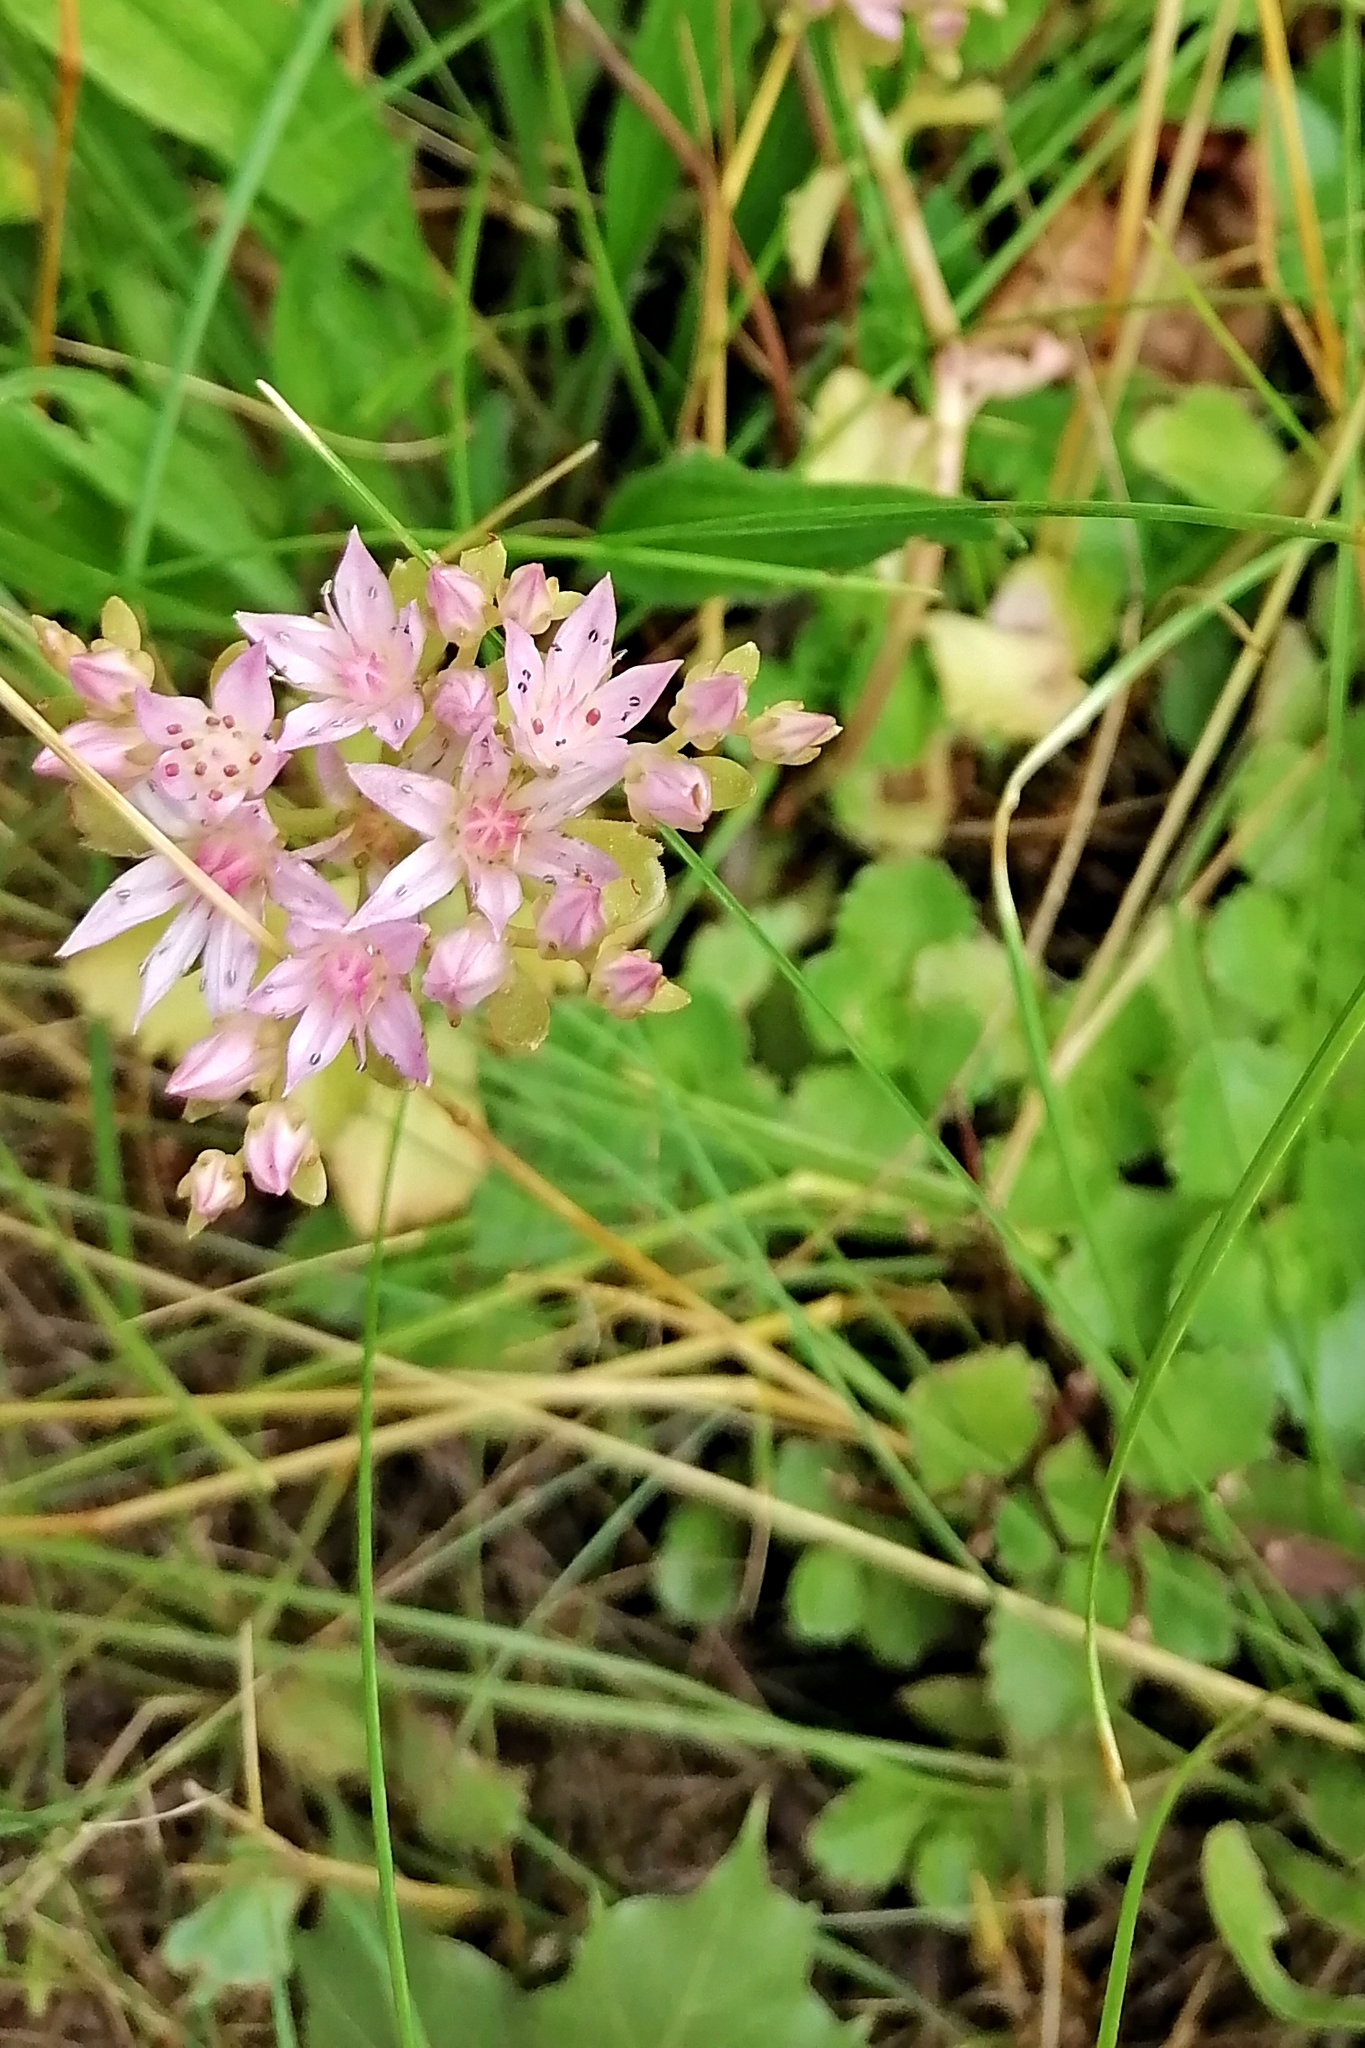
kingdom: Plantae
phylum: Tracheophyta
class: Magnoliopsida
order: Saxifragales
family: Crassulaceae
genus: Phedimus
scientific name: Phedimus spurius
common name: Caucasian stonecrop
